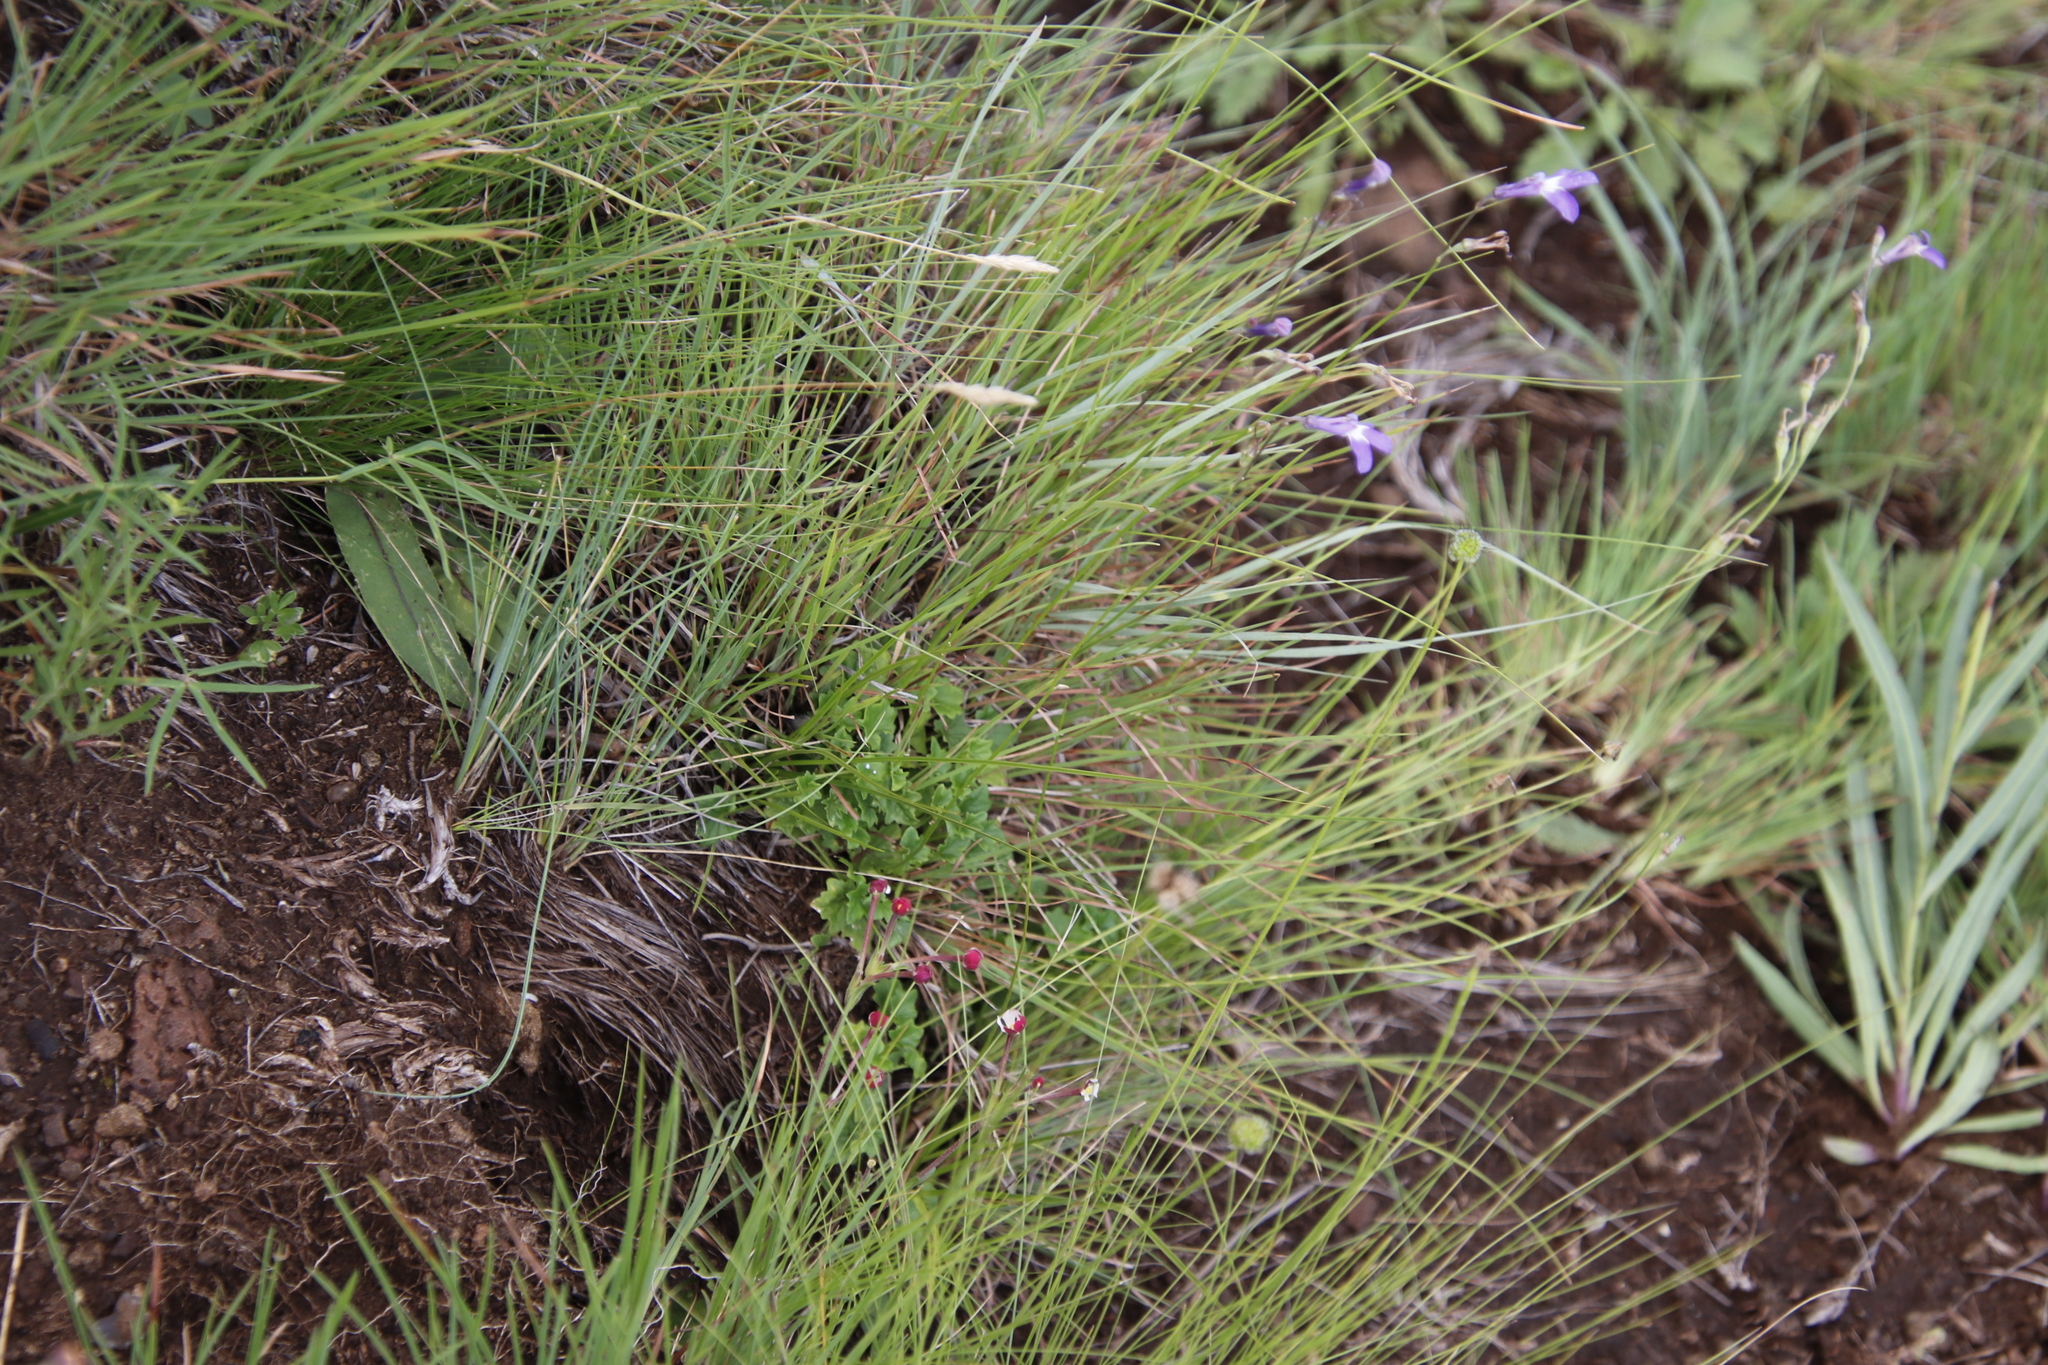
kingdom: Plantae
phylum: Tracheophyta
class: Magnoliopsida
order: Asterales
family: Campanulaceae
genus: Lobelia
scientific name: Lobelia preslii
